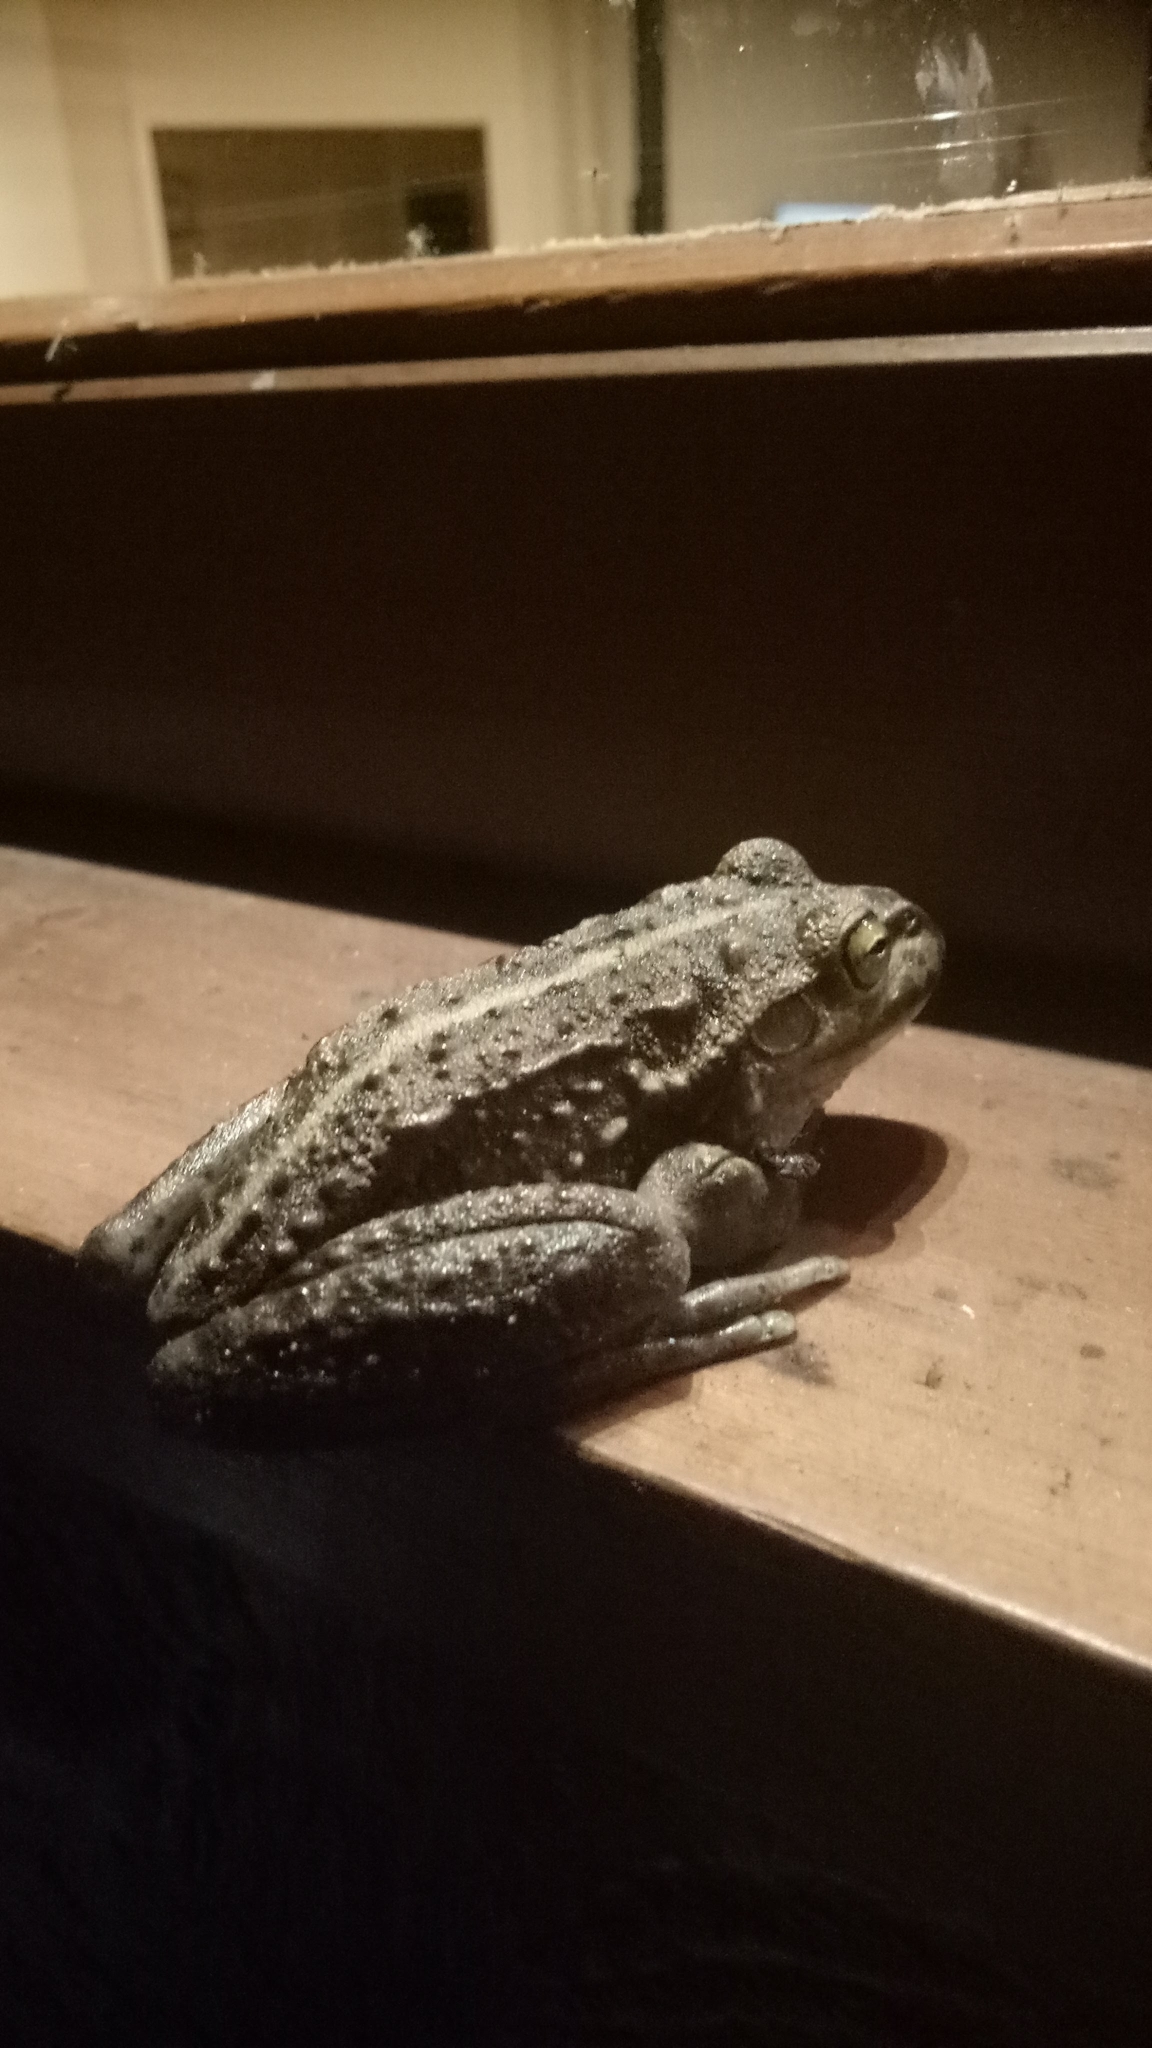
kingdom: Animalia
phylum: Chordata
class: Amphibia
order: Anura
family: Pelodryadidae
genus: Ranoidea
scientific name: Ranoidea moorei
